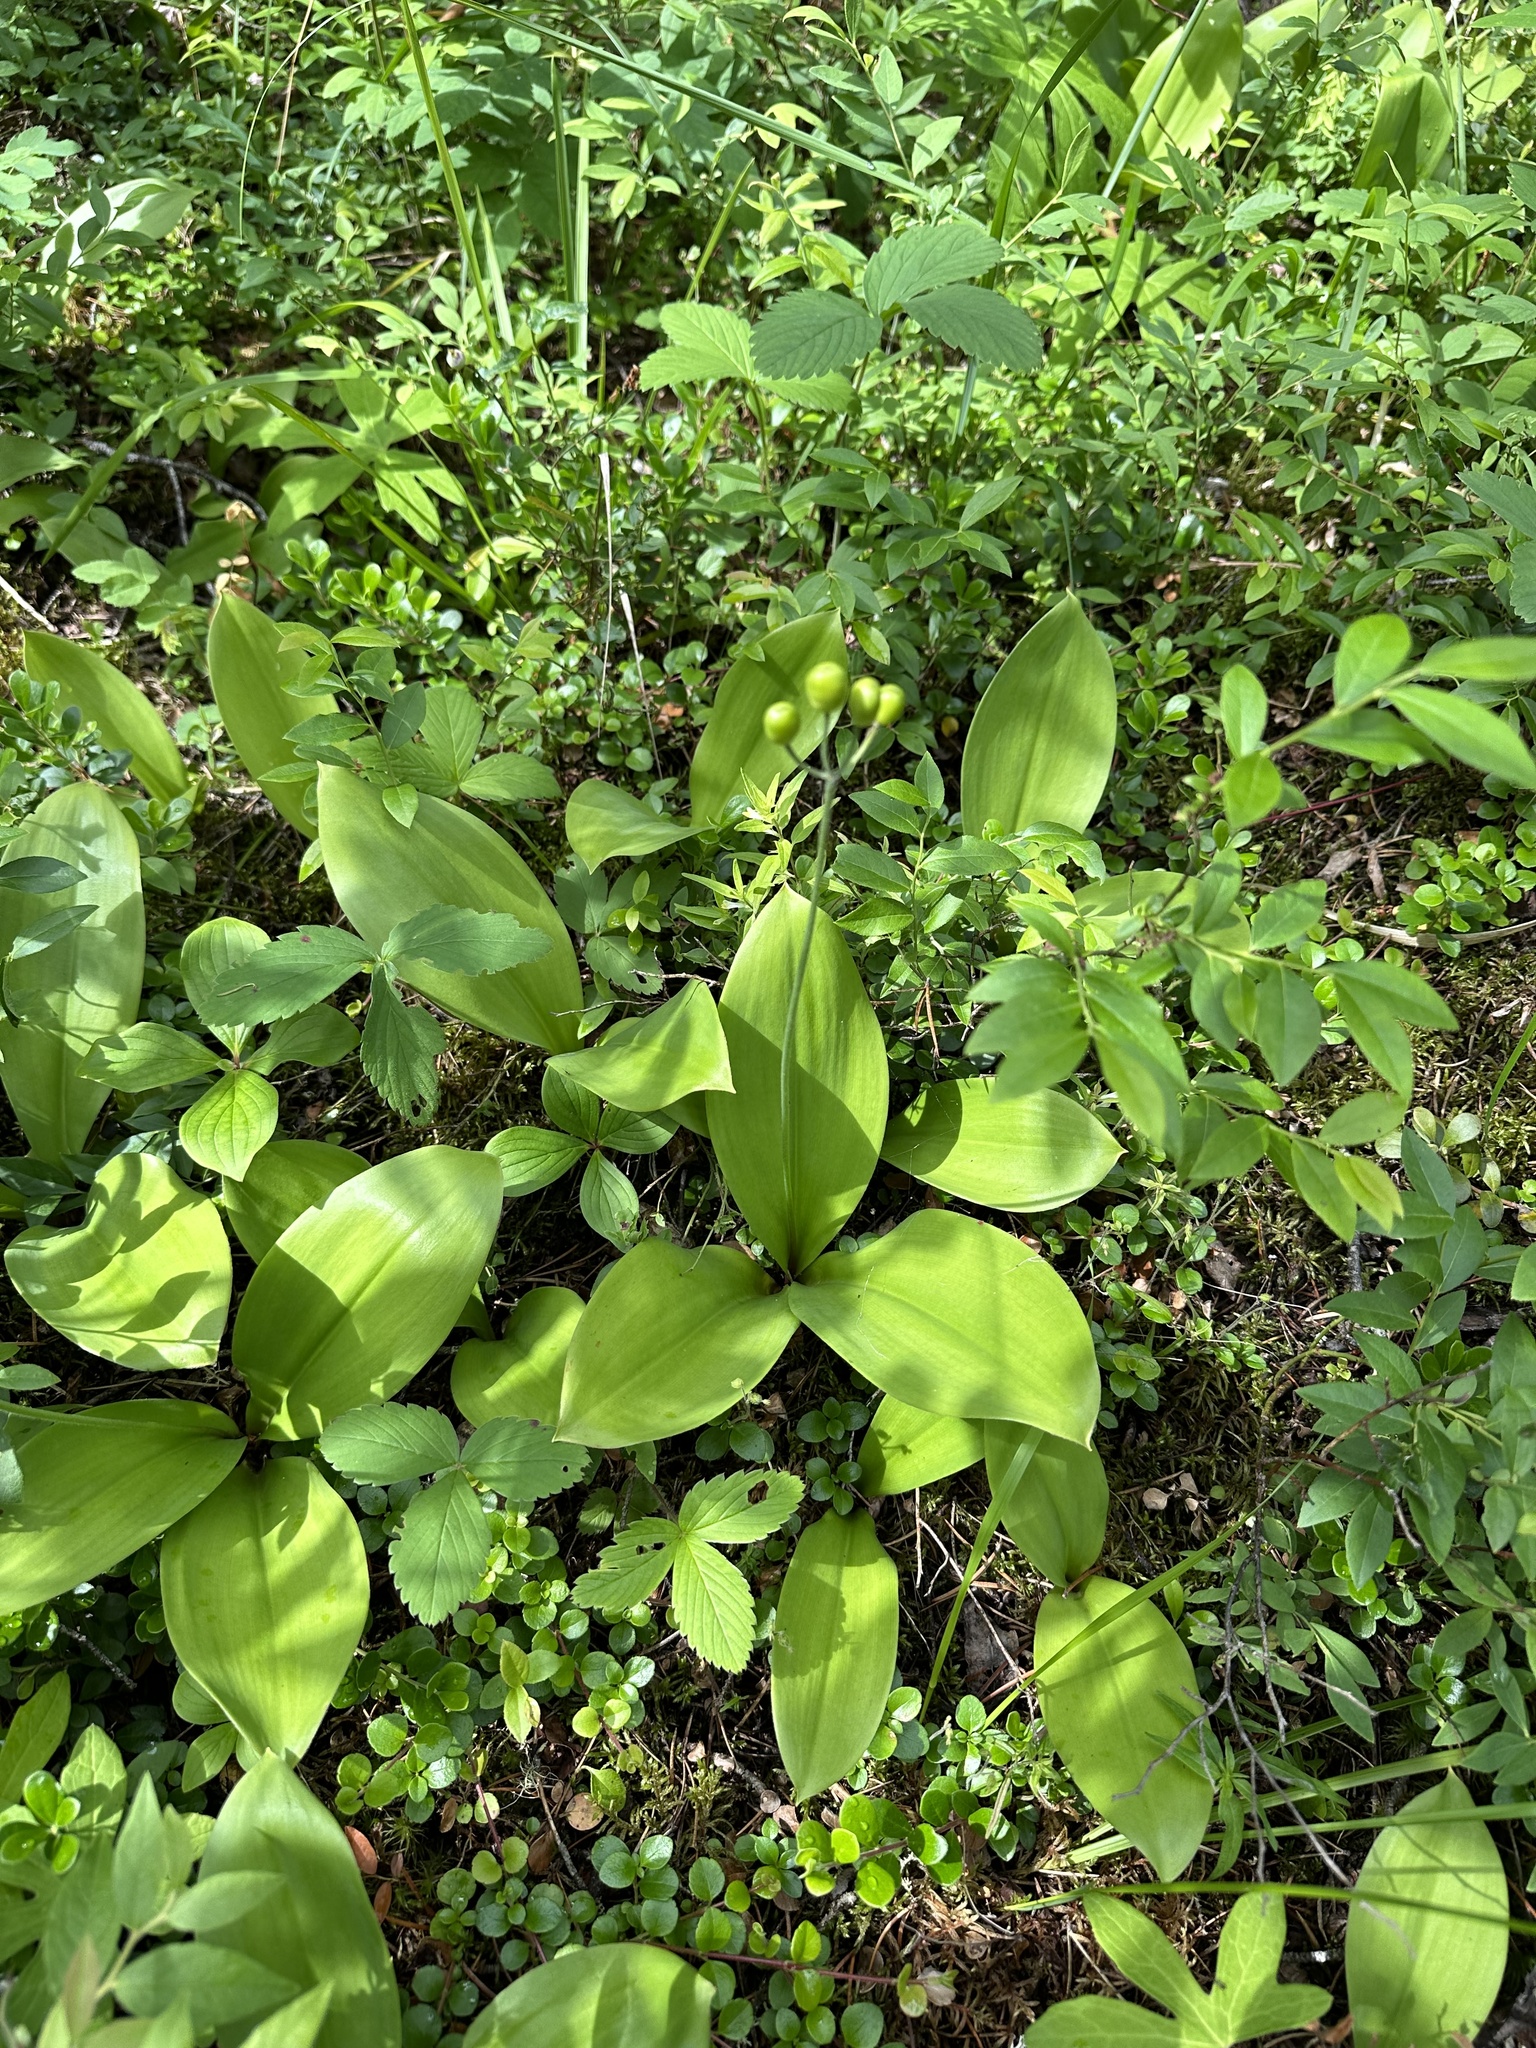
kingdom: Plantae
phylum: Tracheophyta
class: Liliopsida
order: Liliales
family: Liliaceae
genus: Clintonia
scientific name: Clintonia borealis
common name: Yellow clintonia
